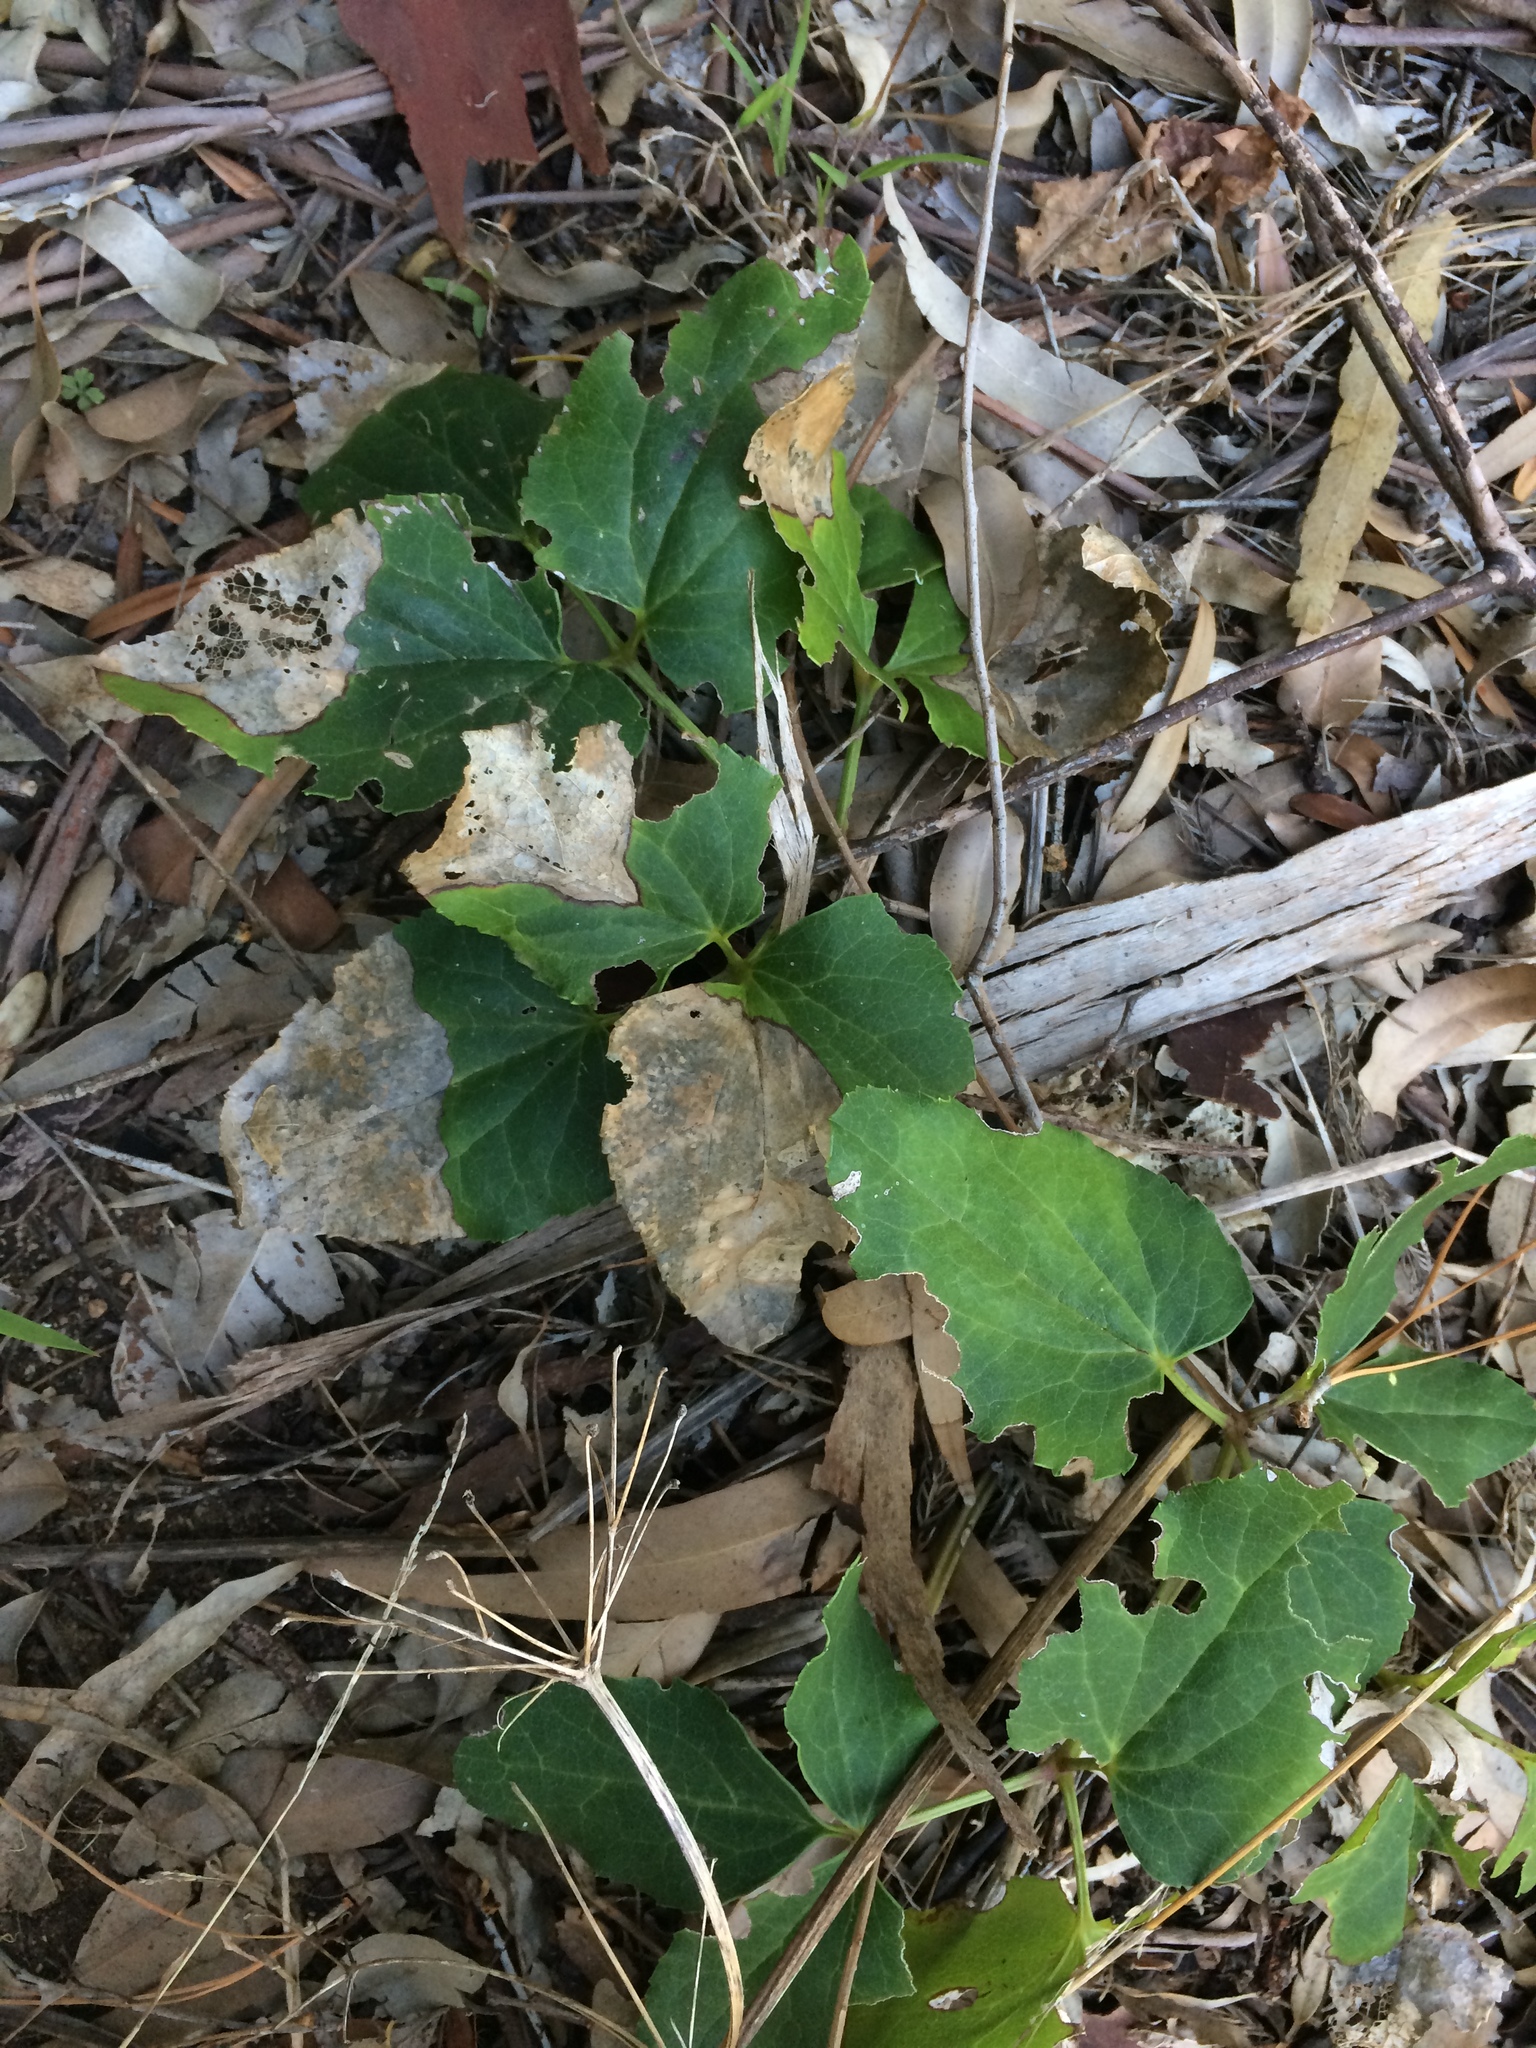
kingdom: Plantae
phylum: Tracheophyta
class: Magnoliopsida
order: Ranunculales
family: Ranunculaceae
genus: Knowltonia
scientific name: Knowltonia vesicatoria
